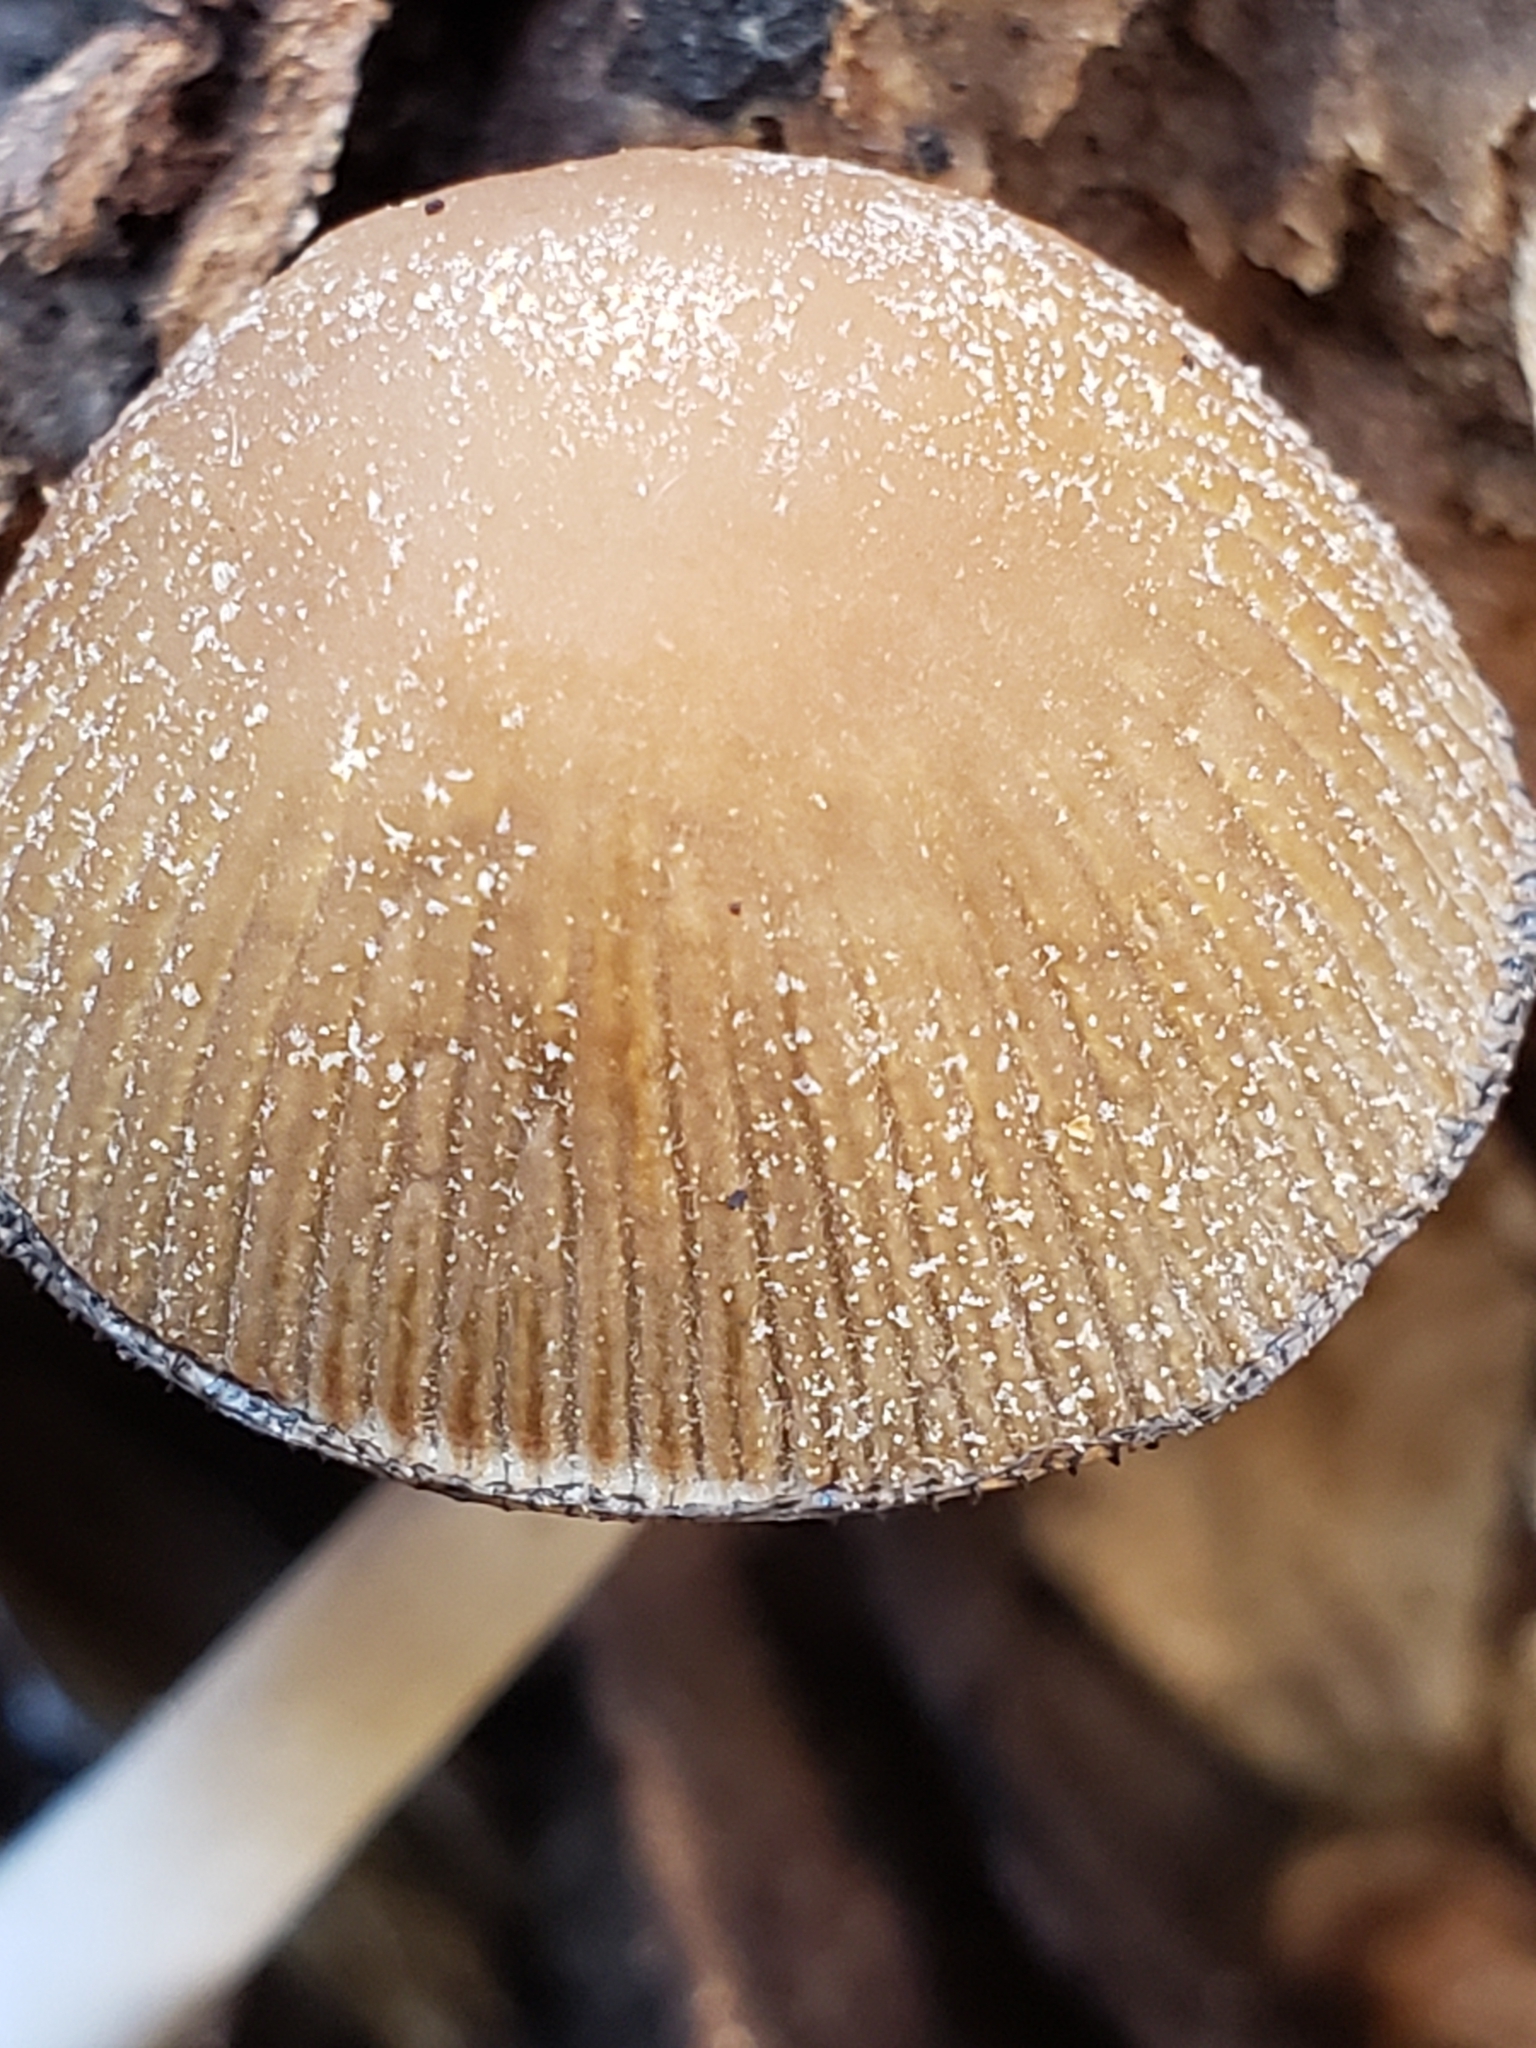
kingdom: Fungi
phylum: Basidiomycota
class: Agaricomycetes
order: Agaricales
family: Psathyrellaceae
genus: Coprinellus
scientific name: Coprinellus micaceus
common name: Glistening ink-cap
